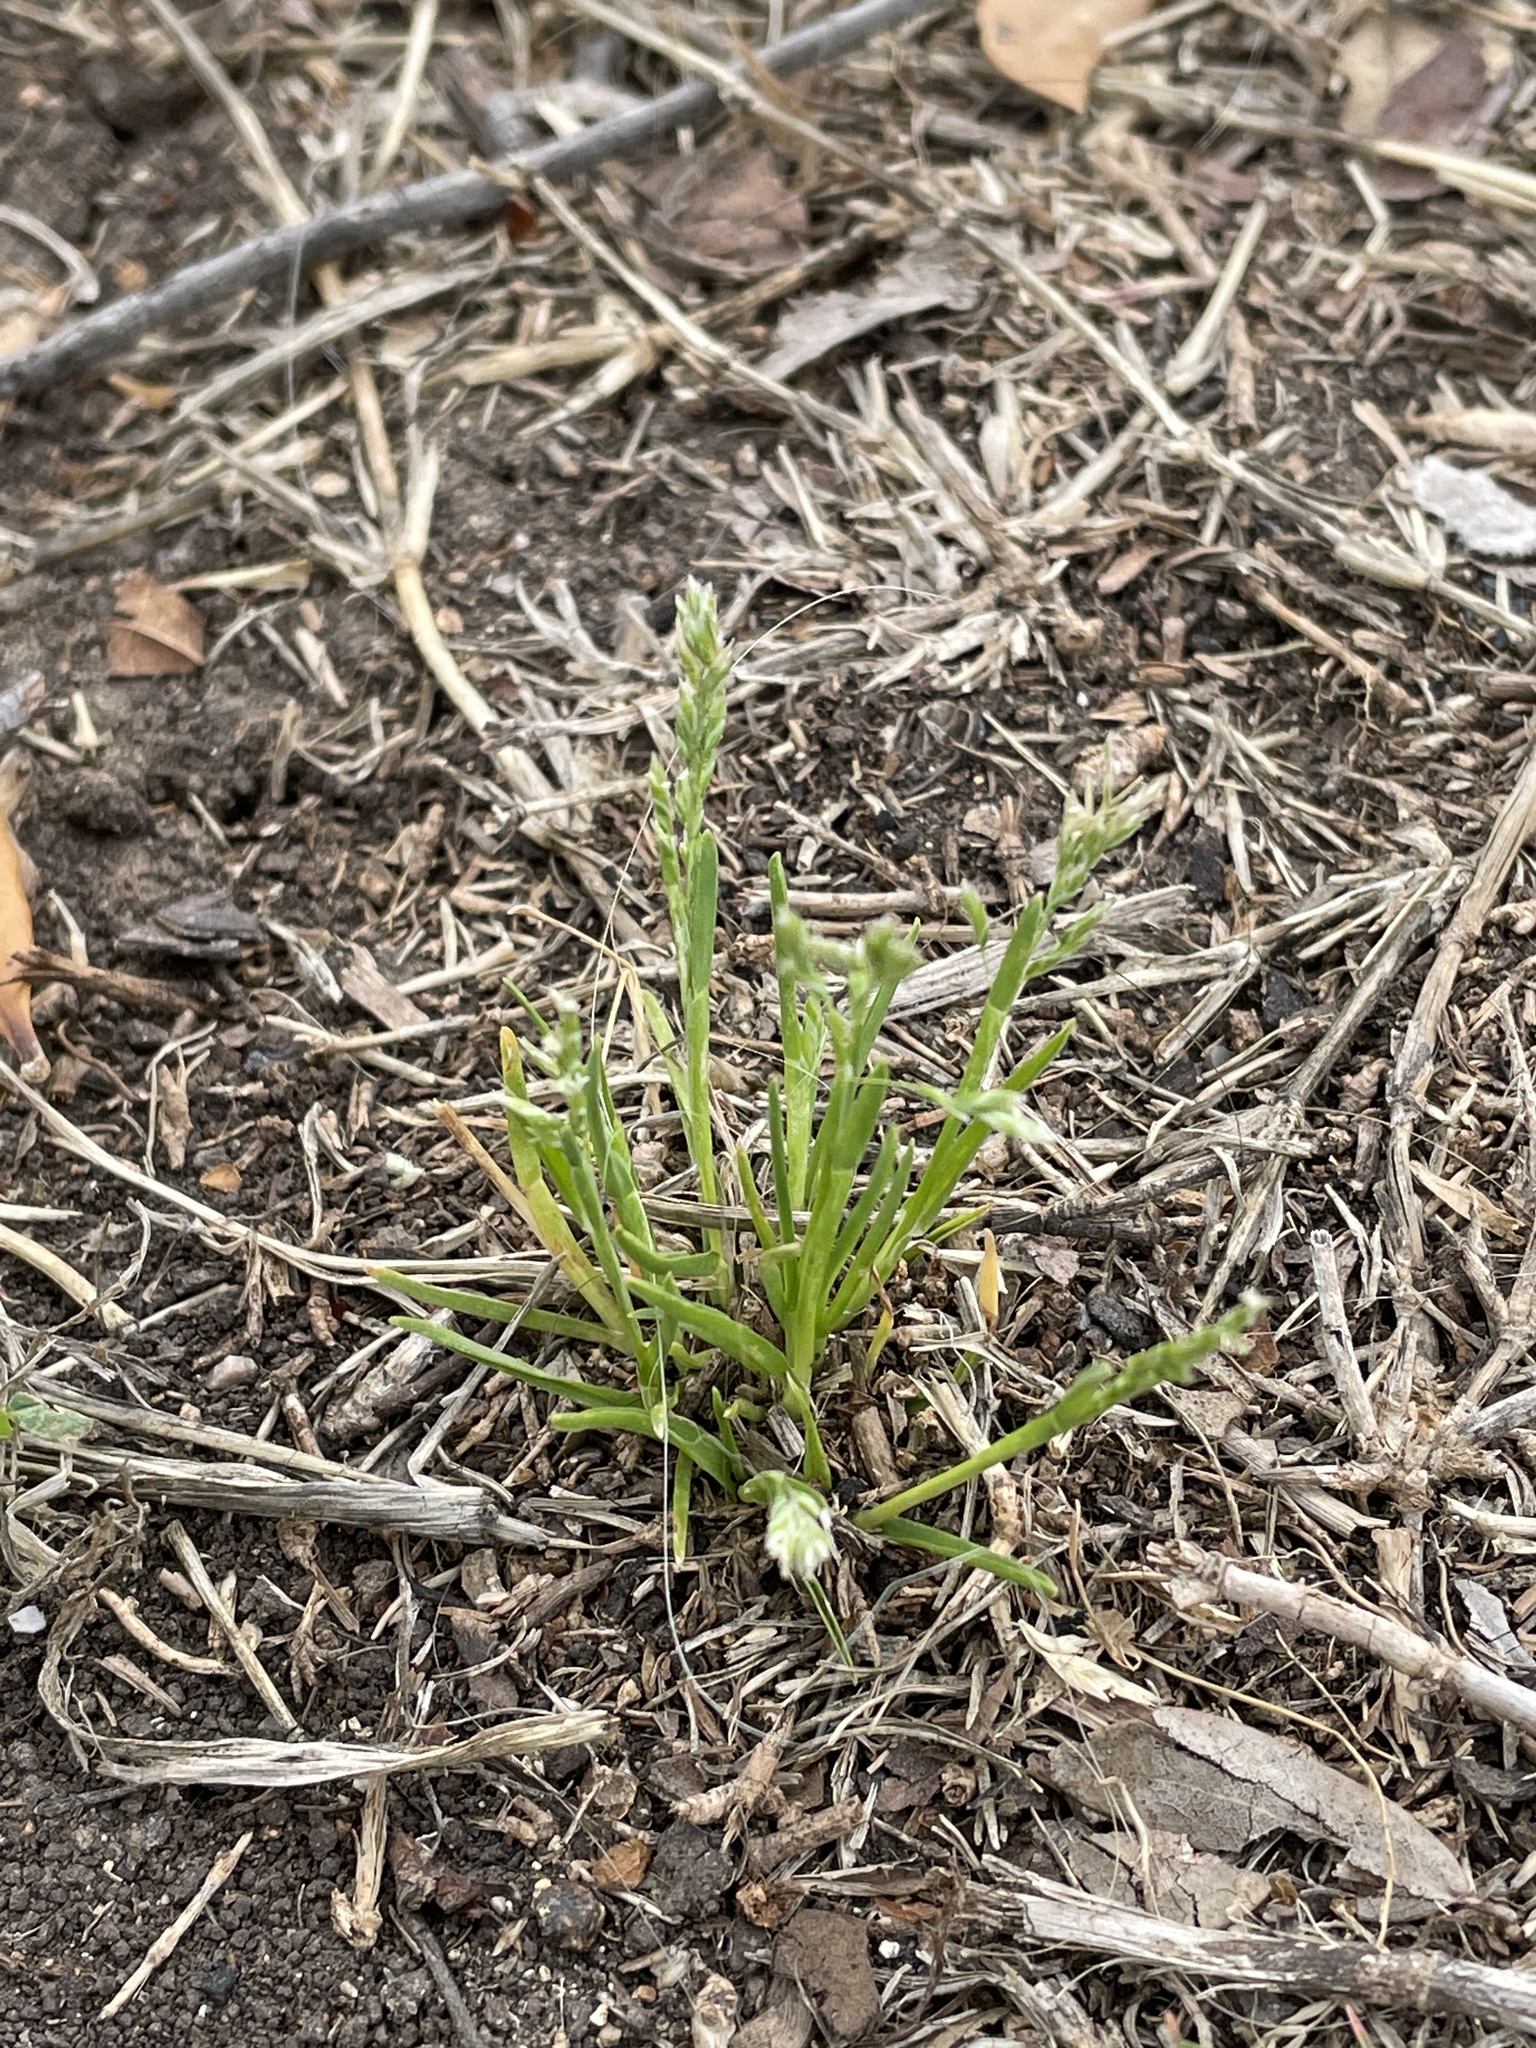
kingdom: Plantae
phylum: Tracheophyta
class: Liliopsida
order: Poales
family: Poaceae
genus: Poa
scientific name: Poa annua
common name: Annual bluegrass
